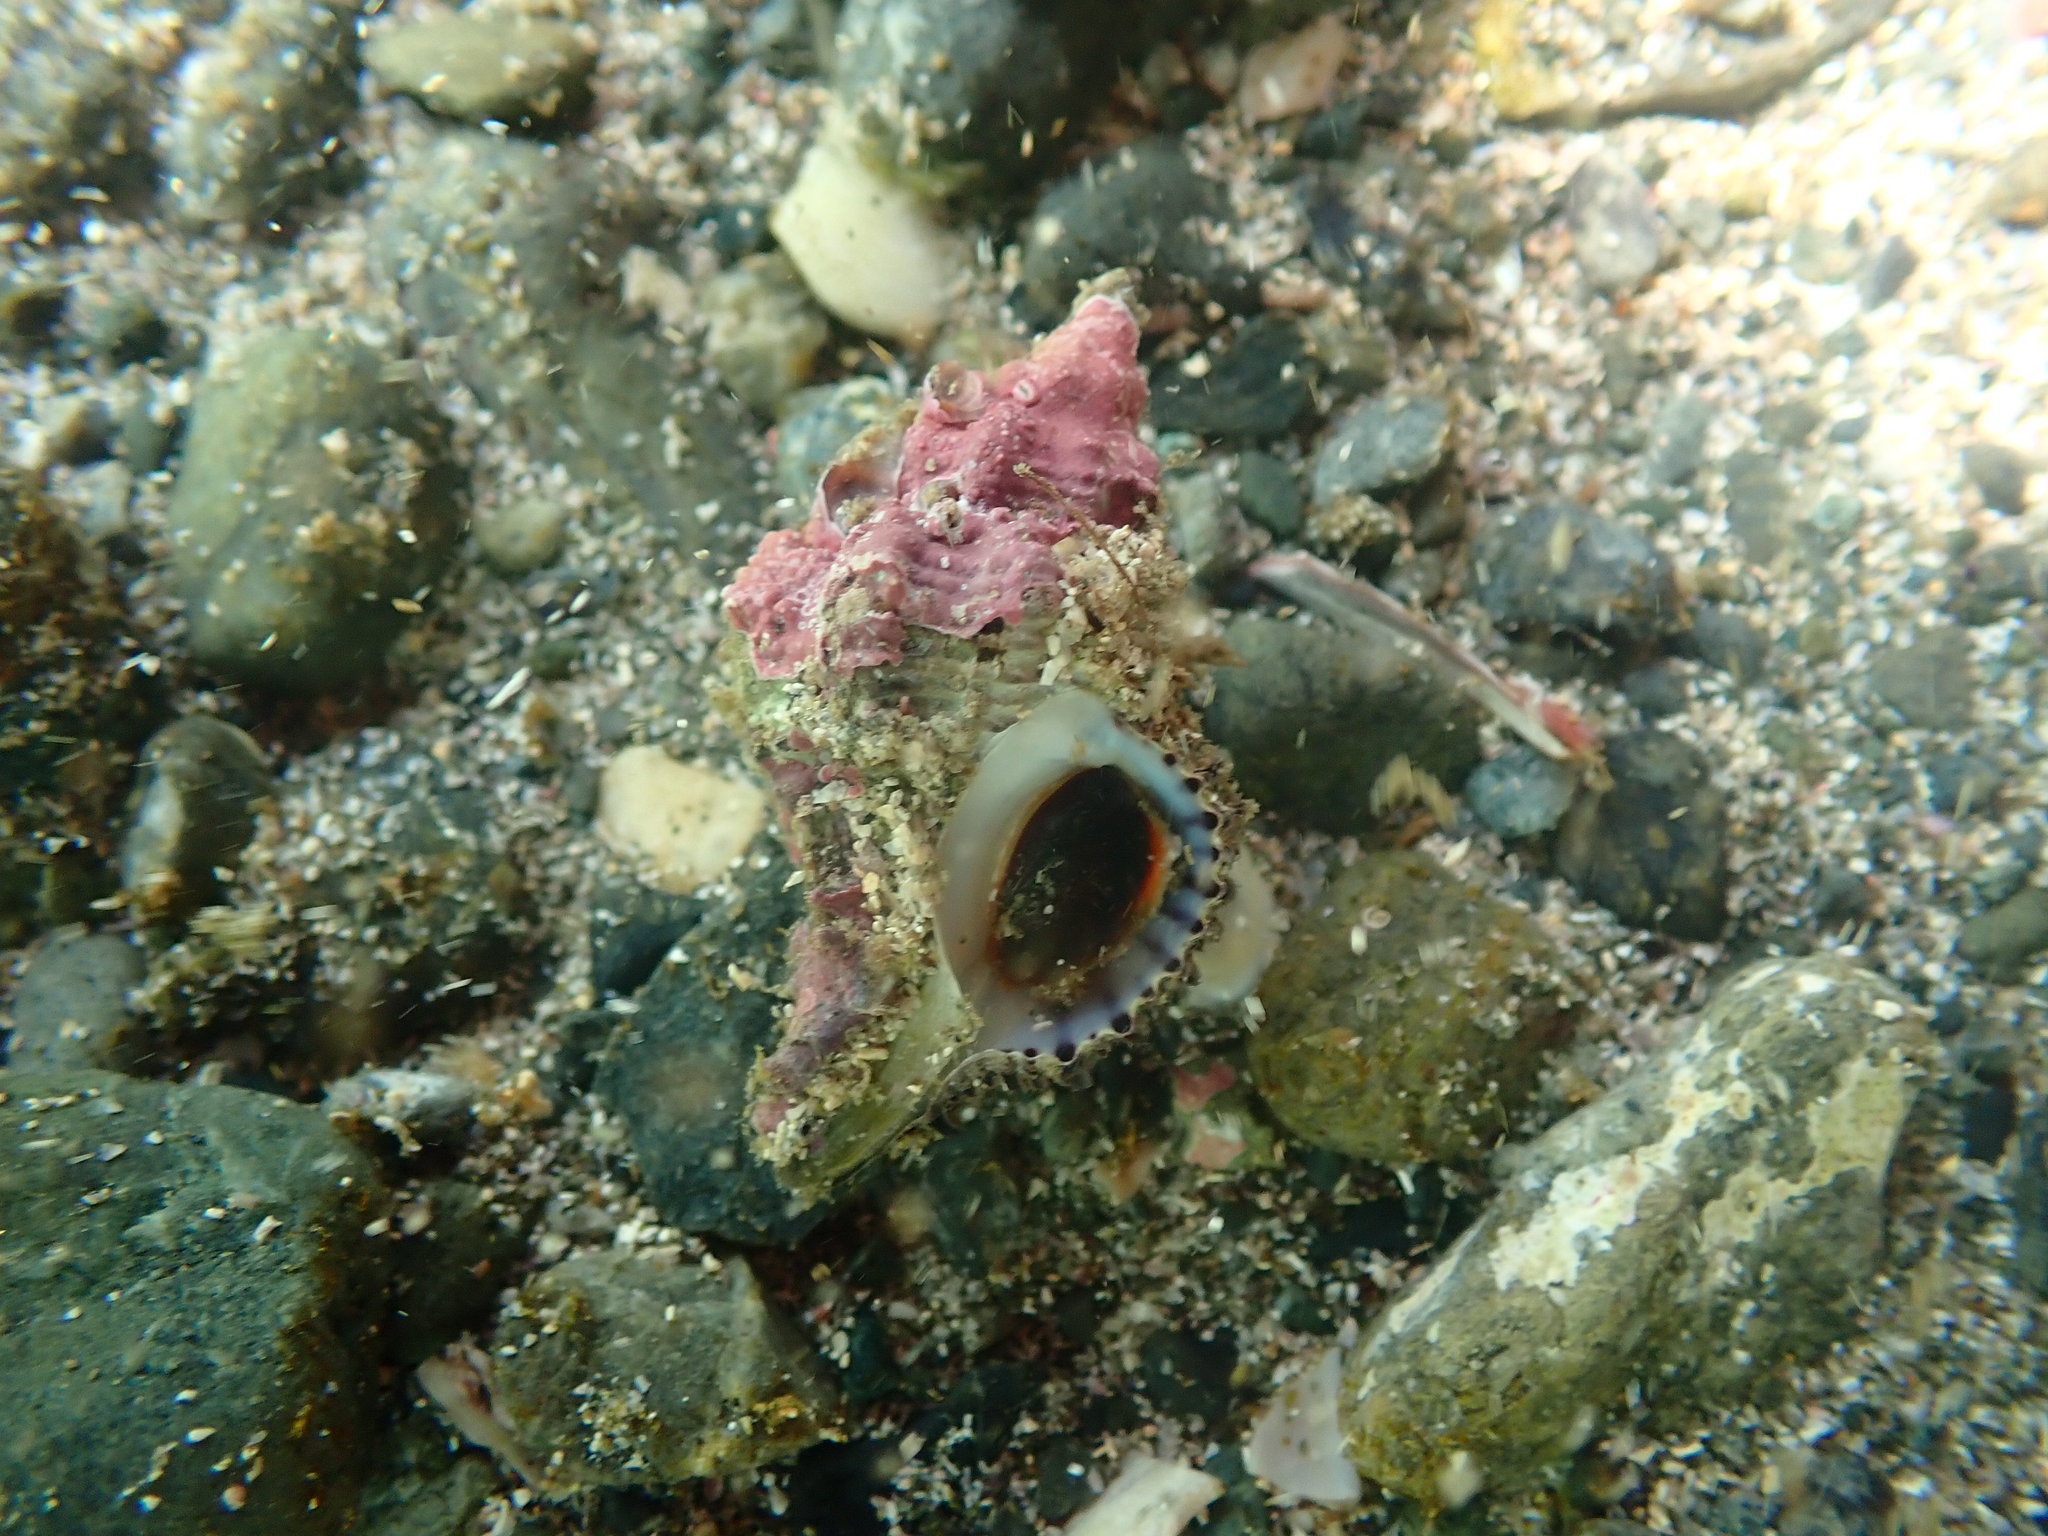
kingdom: Animalia
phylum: Mollusca
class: Gastropoda
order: Neogastropoda
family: Muricidae
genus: Murexsul
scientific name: Murexsul octogonus
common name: Octagon murex
